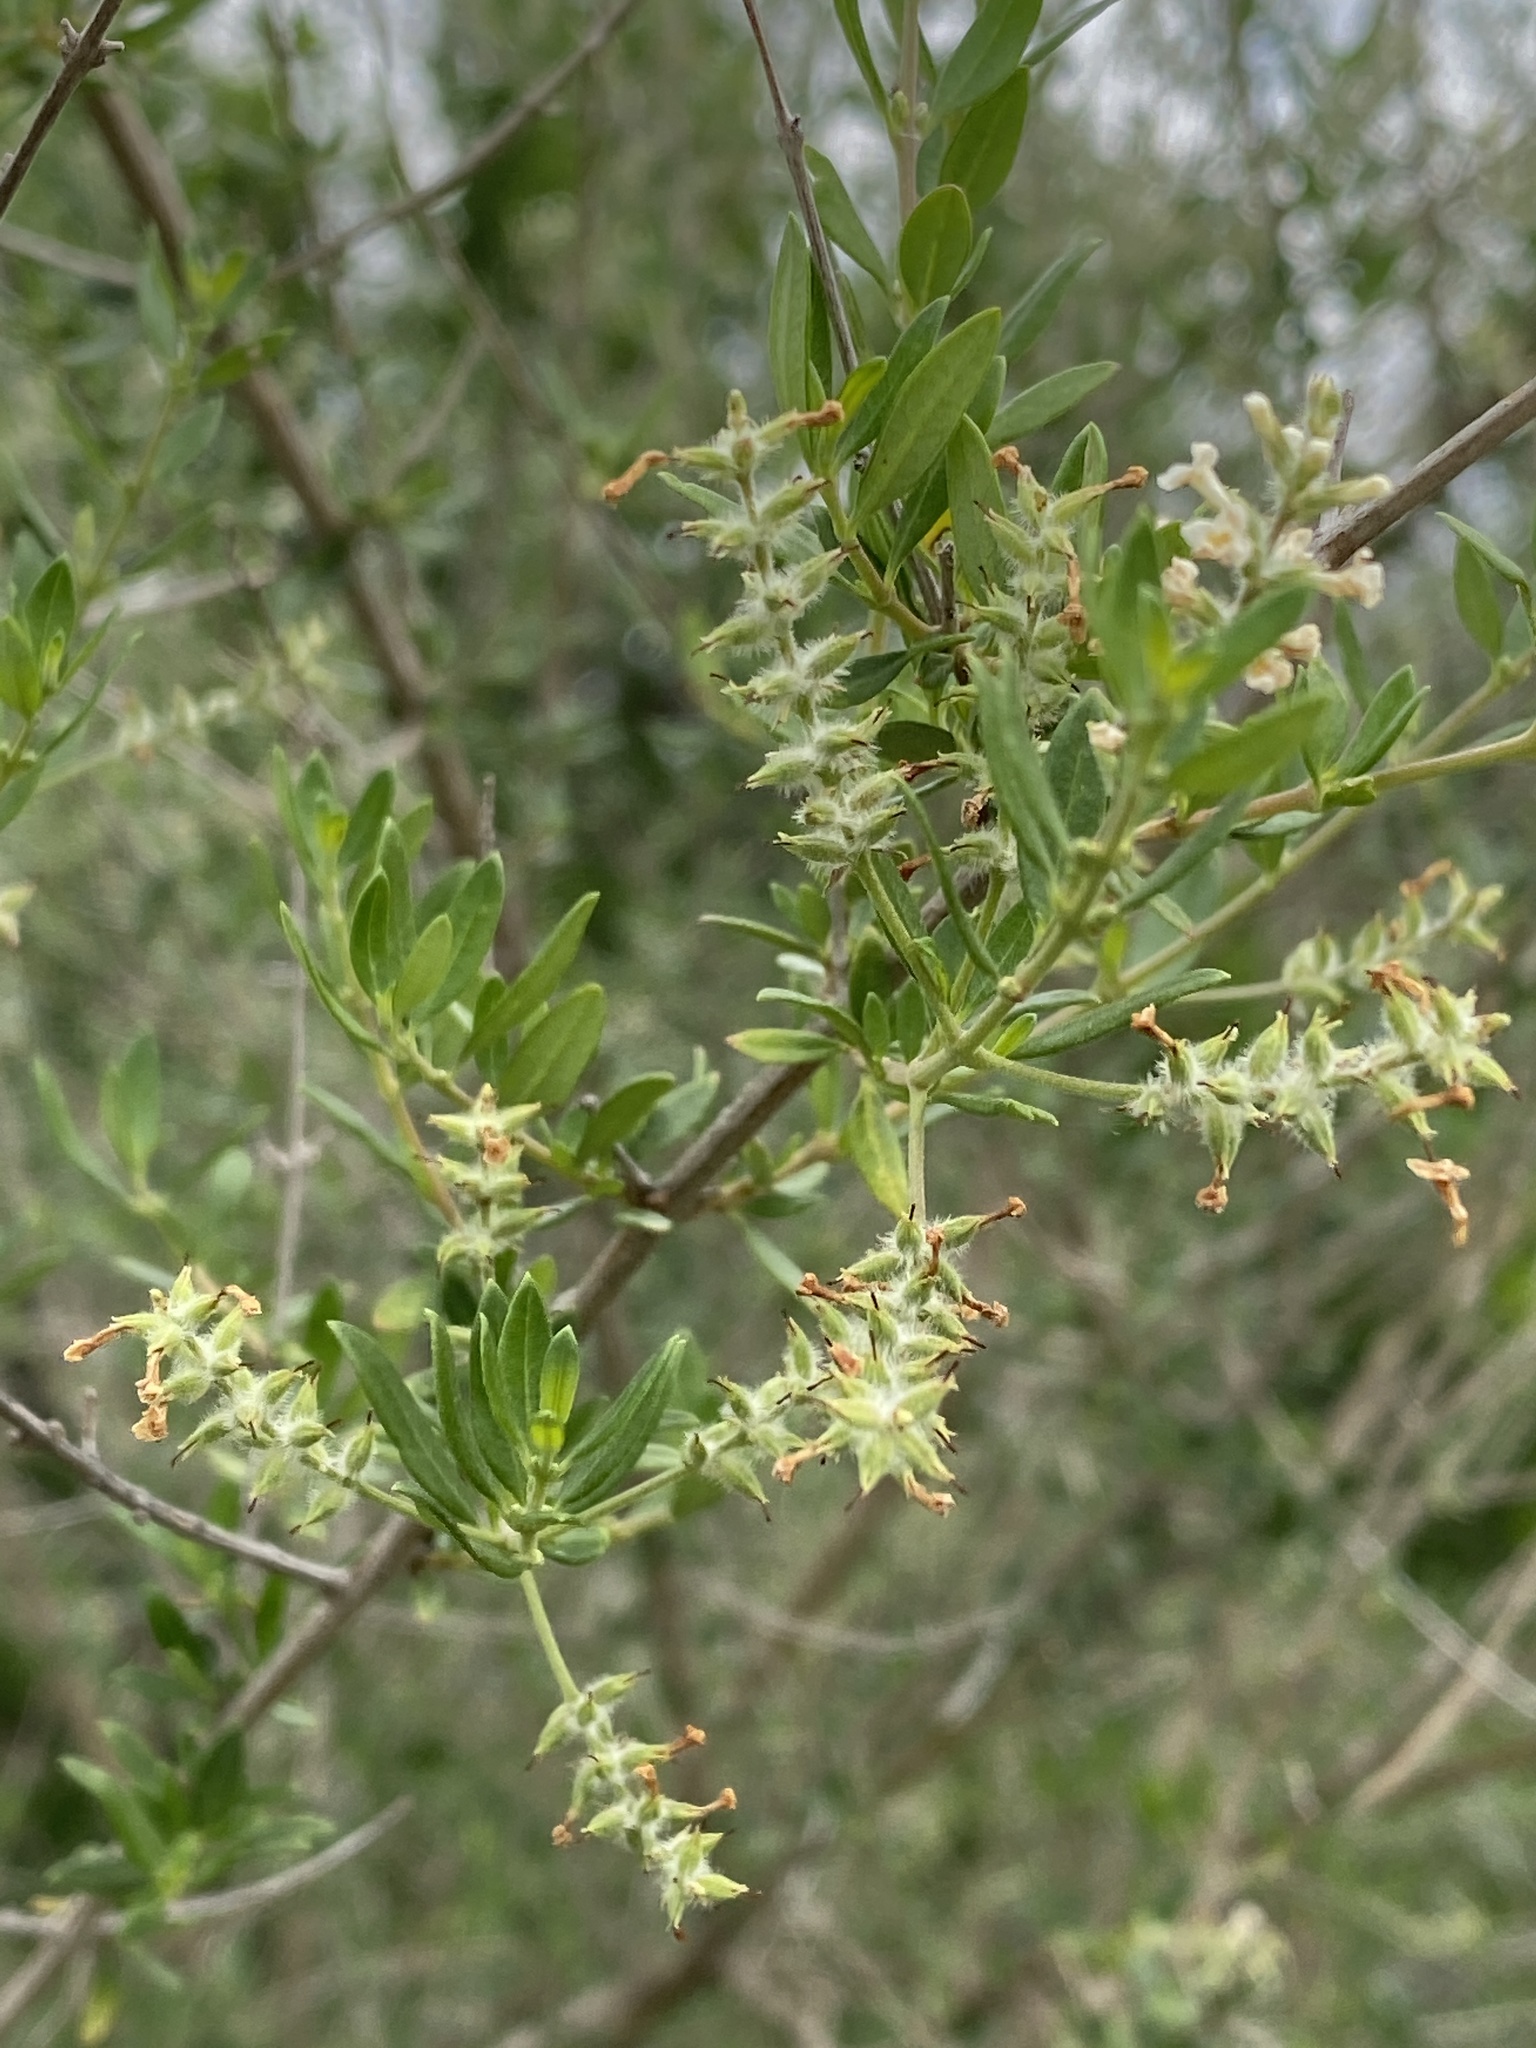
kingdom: Plantae
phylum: Tracheophyta
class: Magnoliopsida
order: Lamiales
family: Verbenaceae
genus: Aloysia
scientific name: Aloysia gratissima
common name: Common bee-brush
